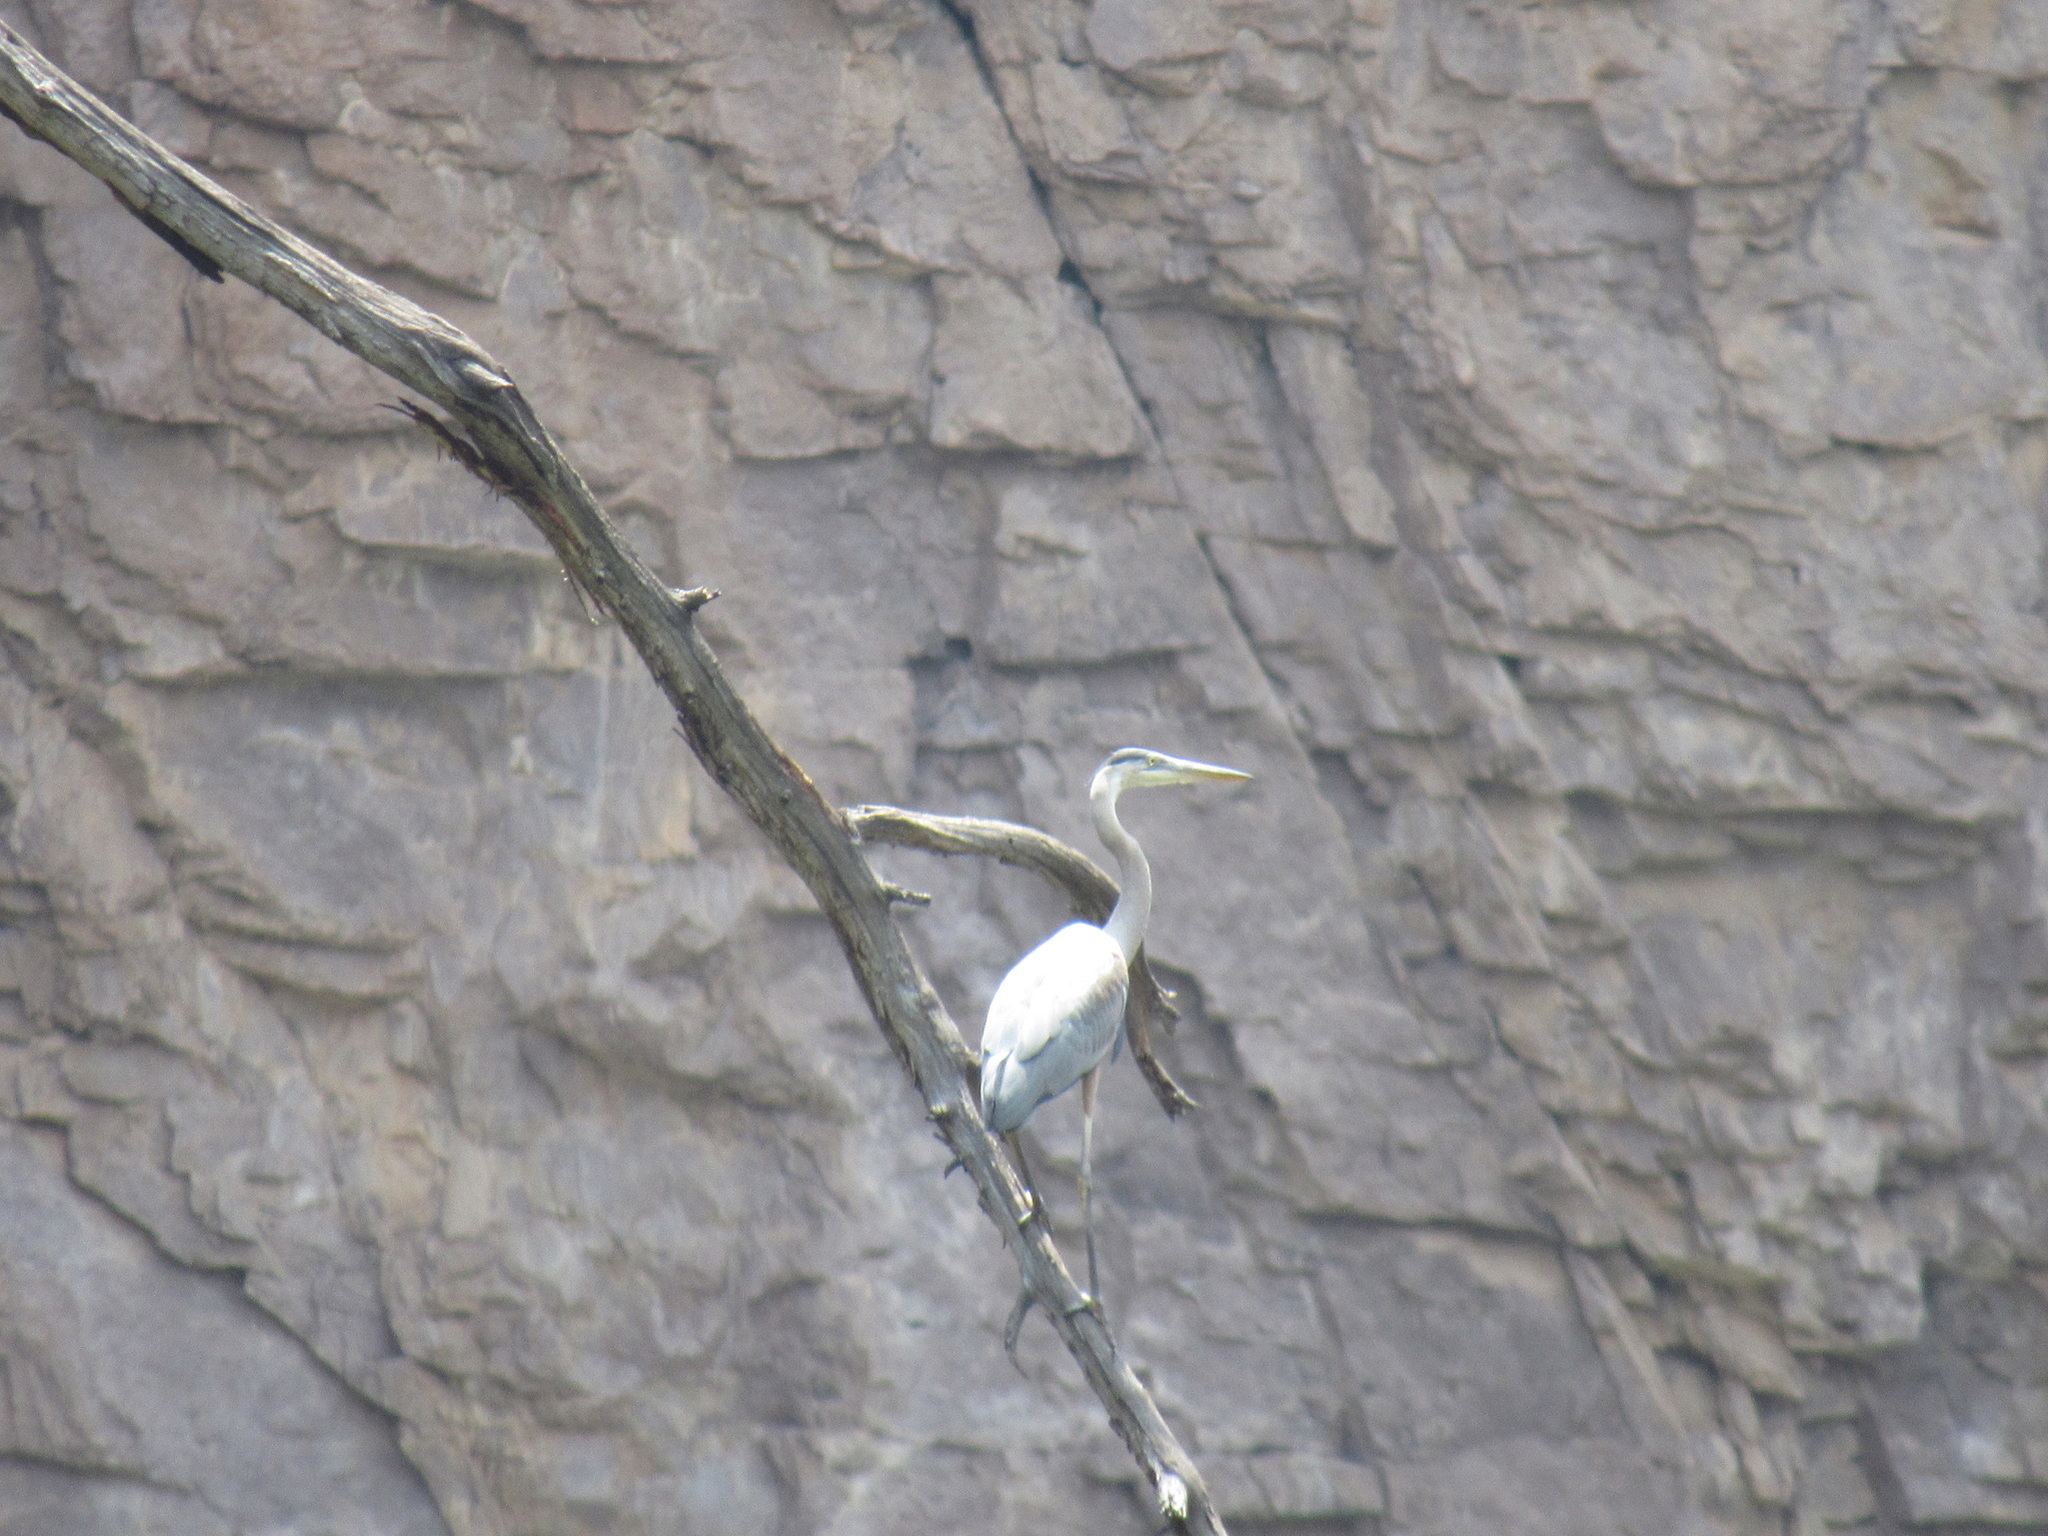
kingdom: Animalia
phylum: Chordata
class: Aves
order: Pelecaniformes
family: Ardeidae
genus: Ardea
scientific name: Ardea herodias
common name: Great blue heron
